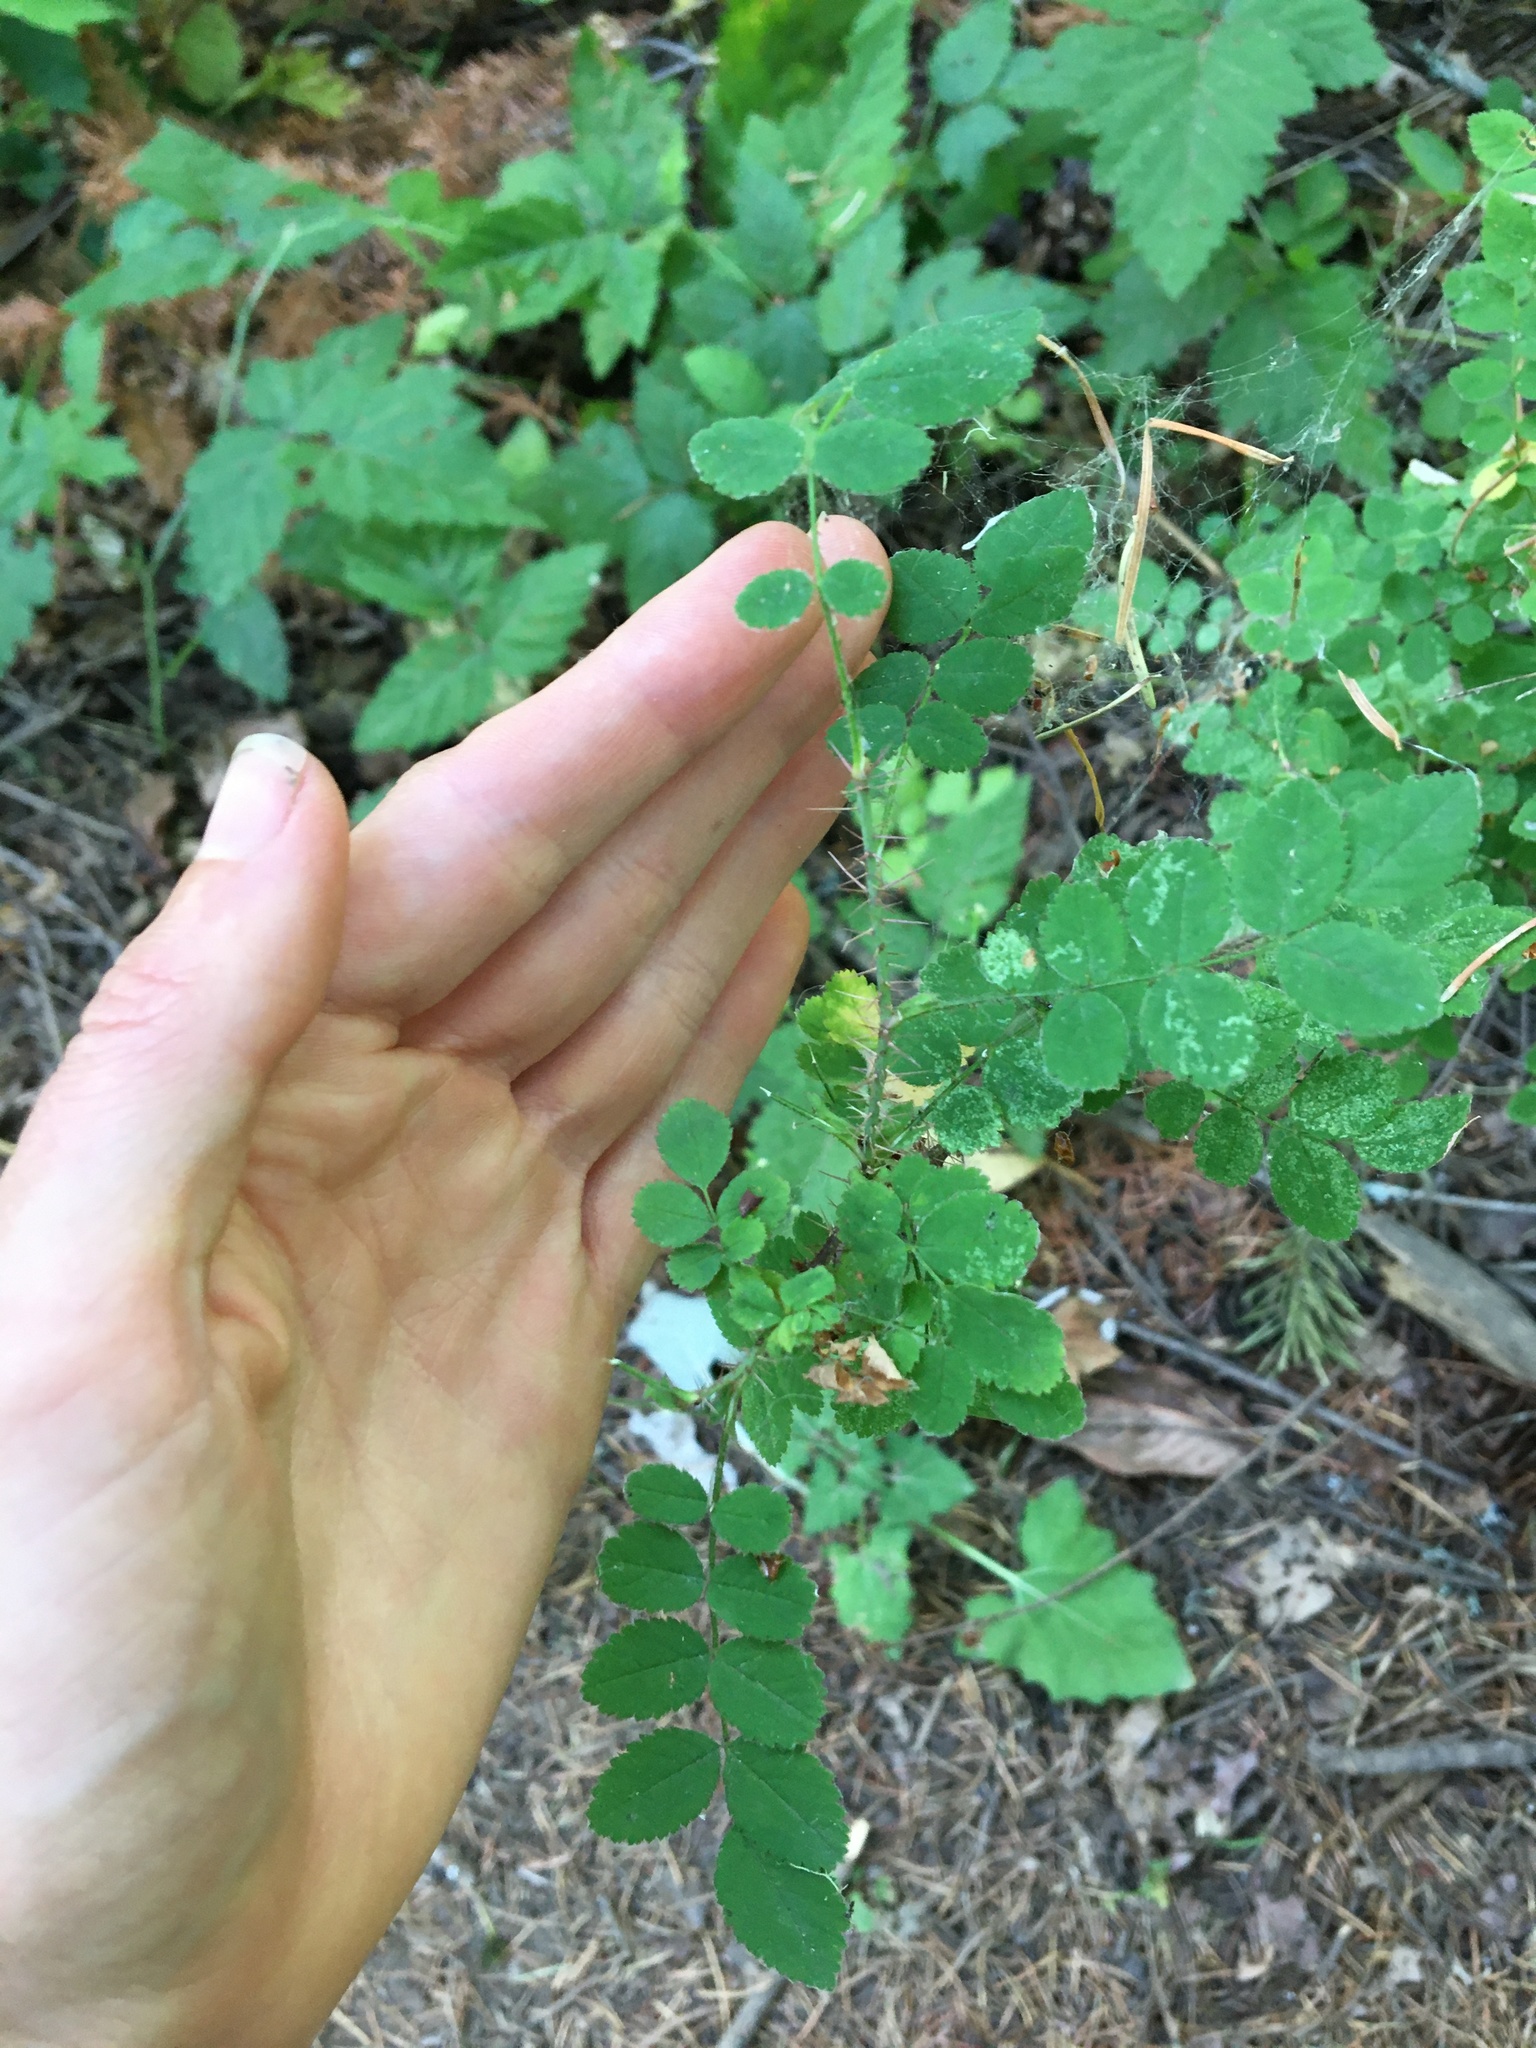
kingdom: Plantae
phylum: Tracheophyta
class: Magnoliopsida
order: Rosales
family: Rosaceae
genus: Rosa
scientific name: Rosa gymnocarpa
